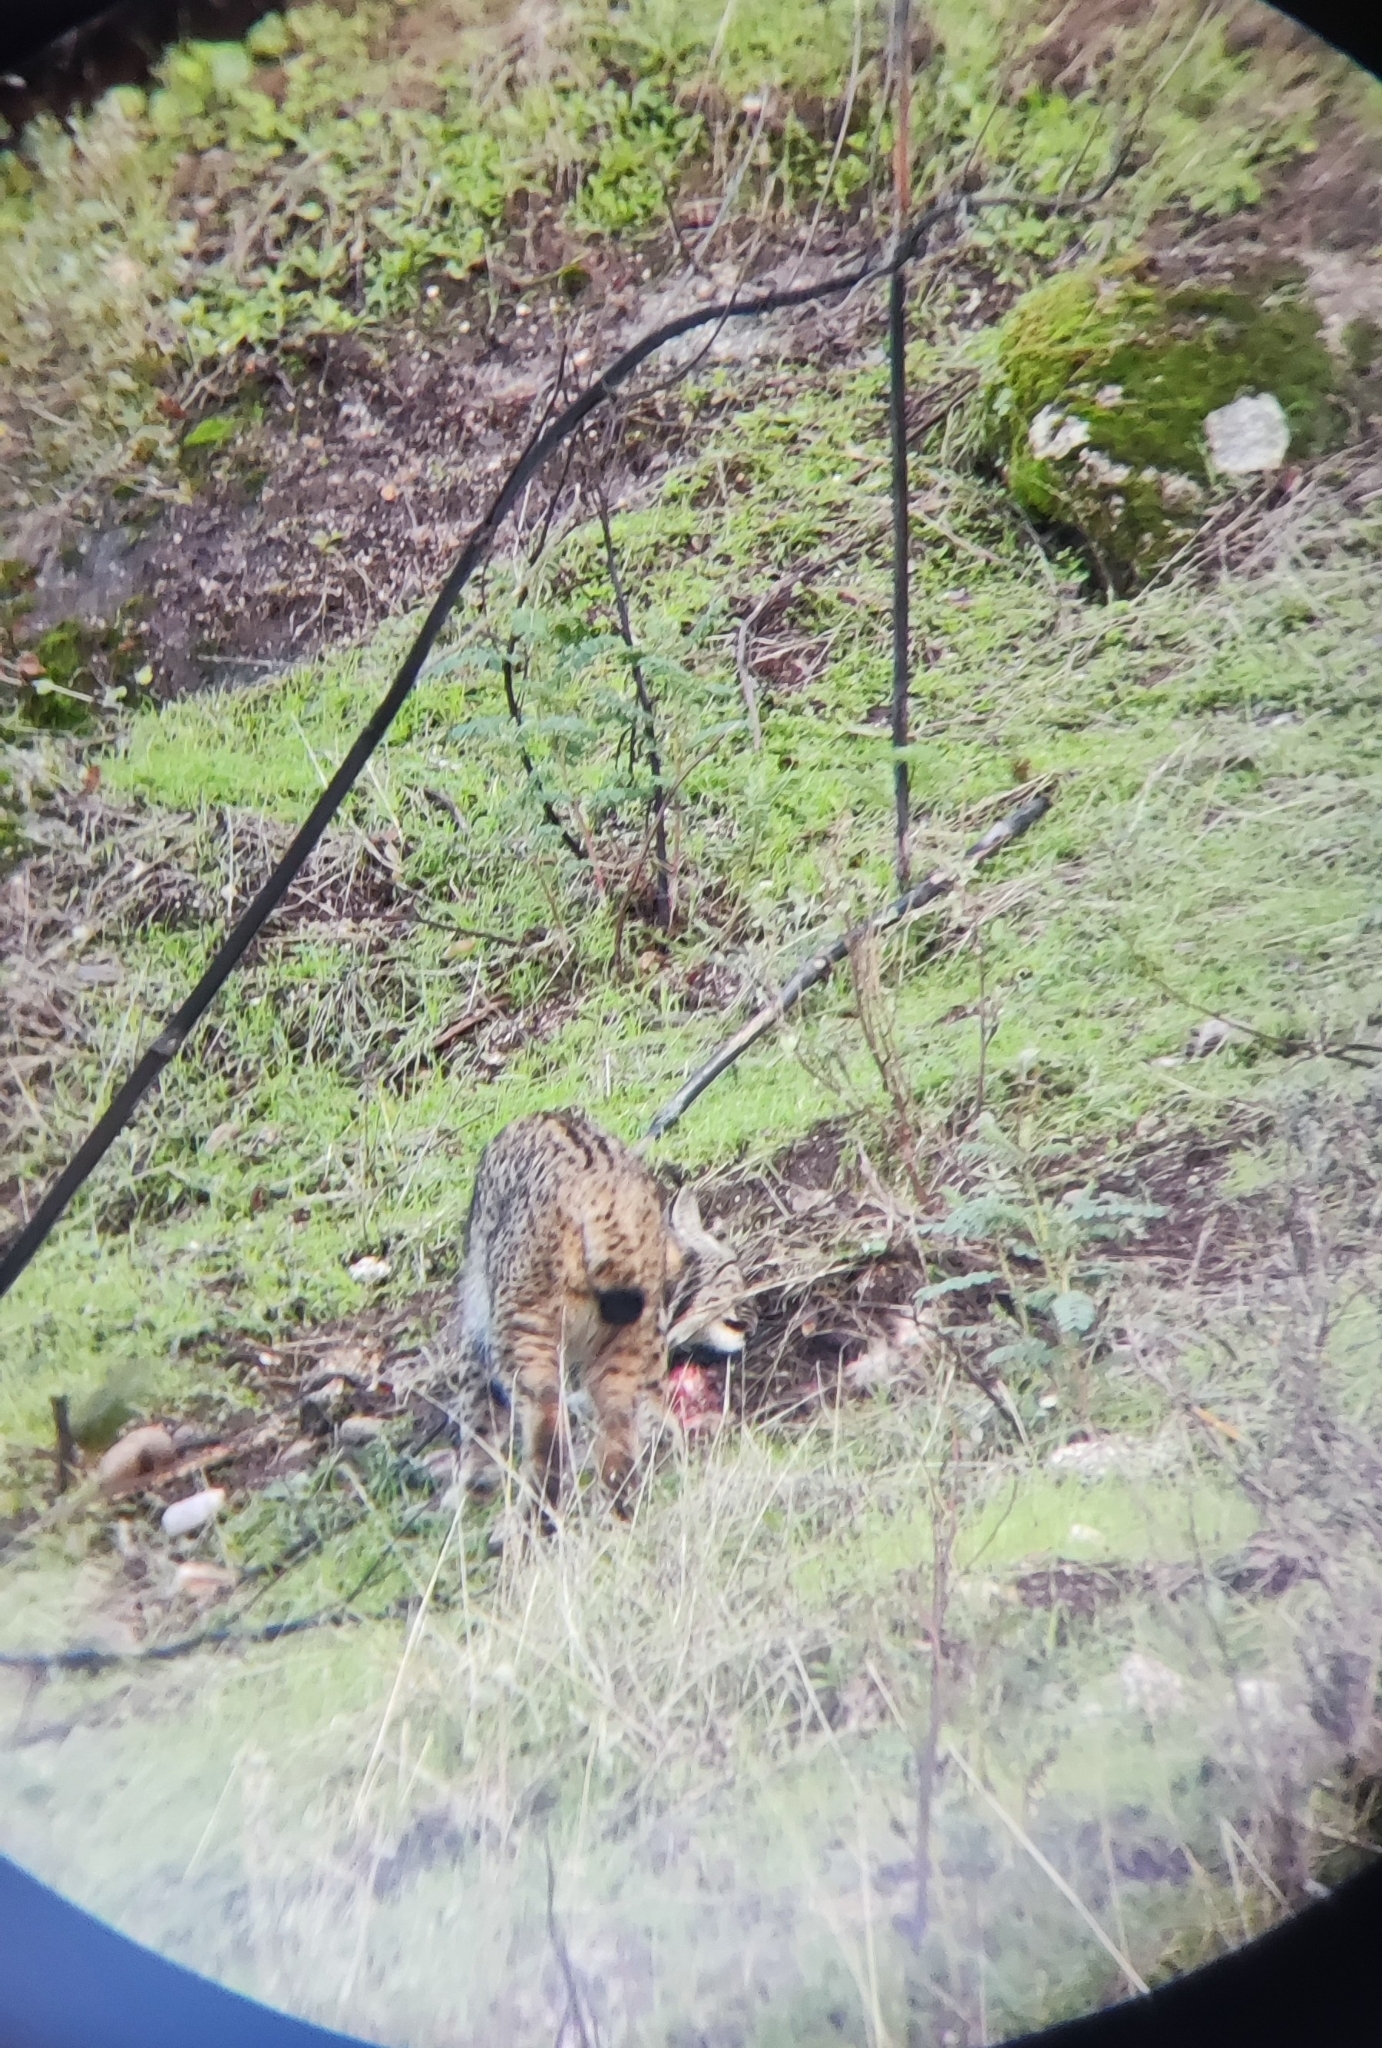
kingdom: Animalia
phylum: Chordata
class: Mammalia
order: Carnivora
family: Felidae
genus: Lynx
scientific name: Lynx pardinus
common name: Spanish lynx
